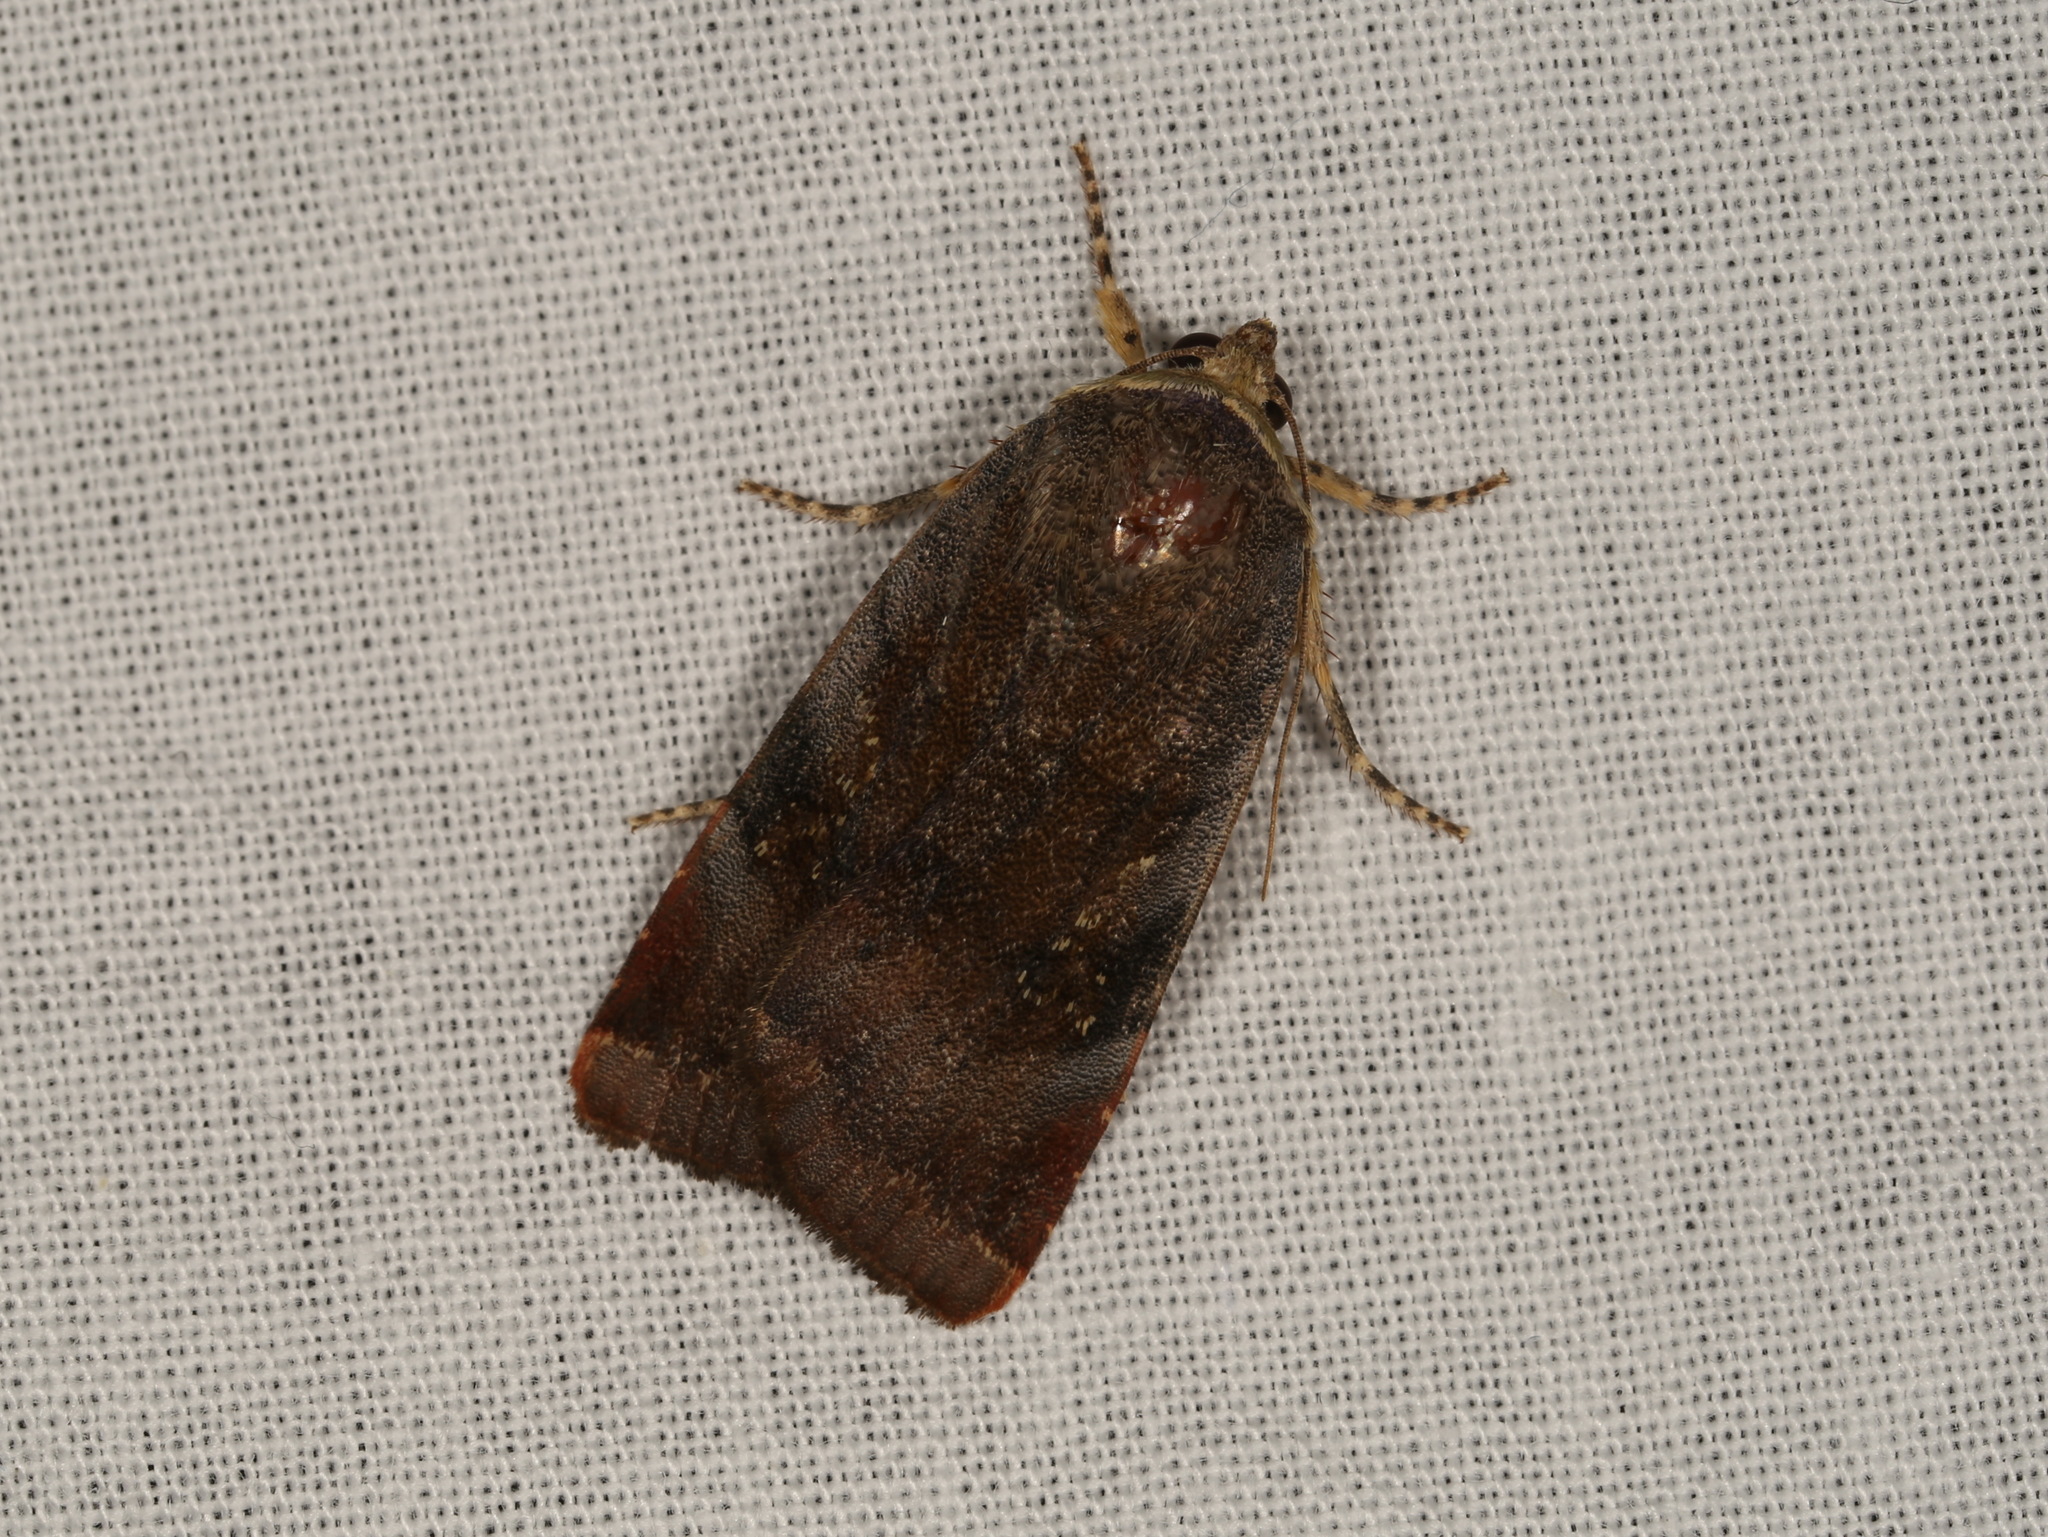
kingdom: Animalia
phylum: Arthropoda
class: Insecta
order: Lepidoptera
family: Noctuidae
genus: Noctua
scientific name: Noctua
